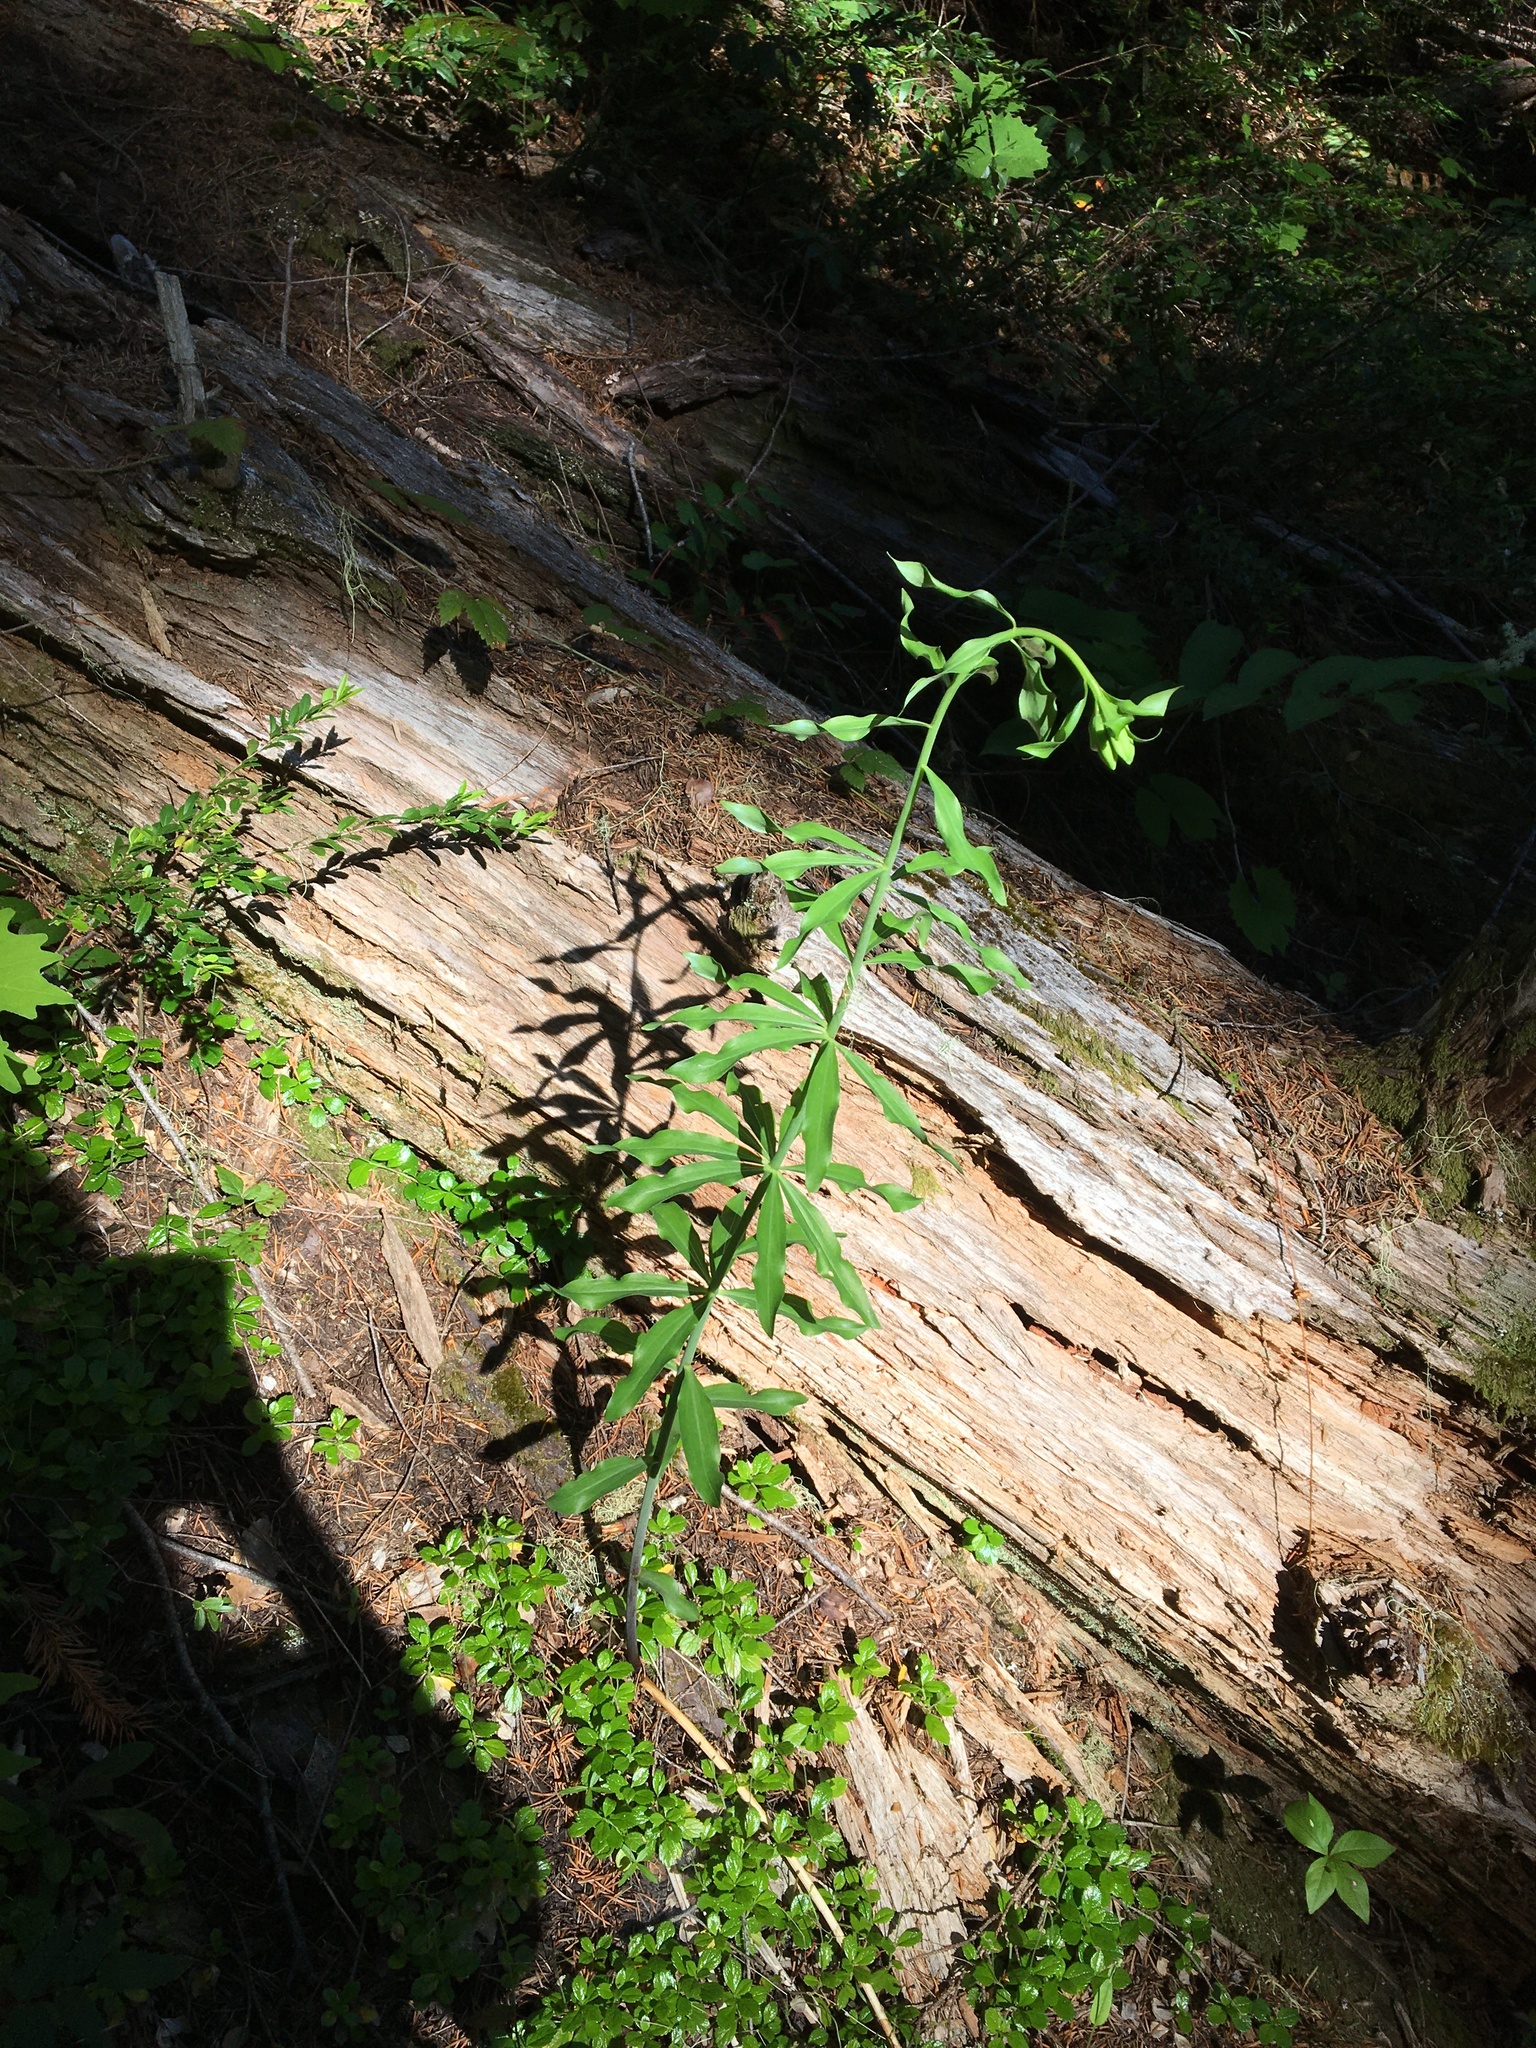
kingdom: Plantae
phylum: Tracheophyta
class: Liliopsida
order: Liliales
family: Liliaceae
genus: Lilium
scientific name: Lilium columbianum
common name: Columbia lily
